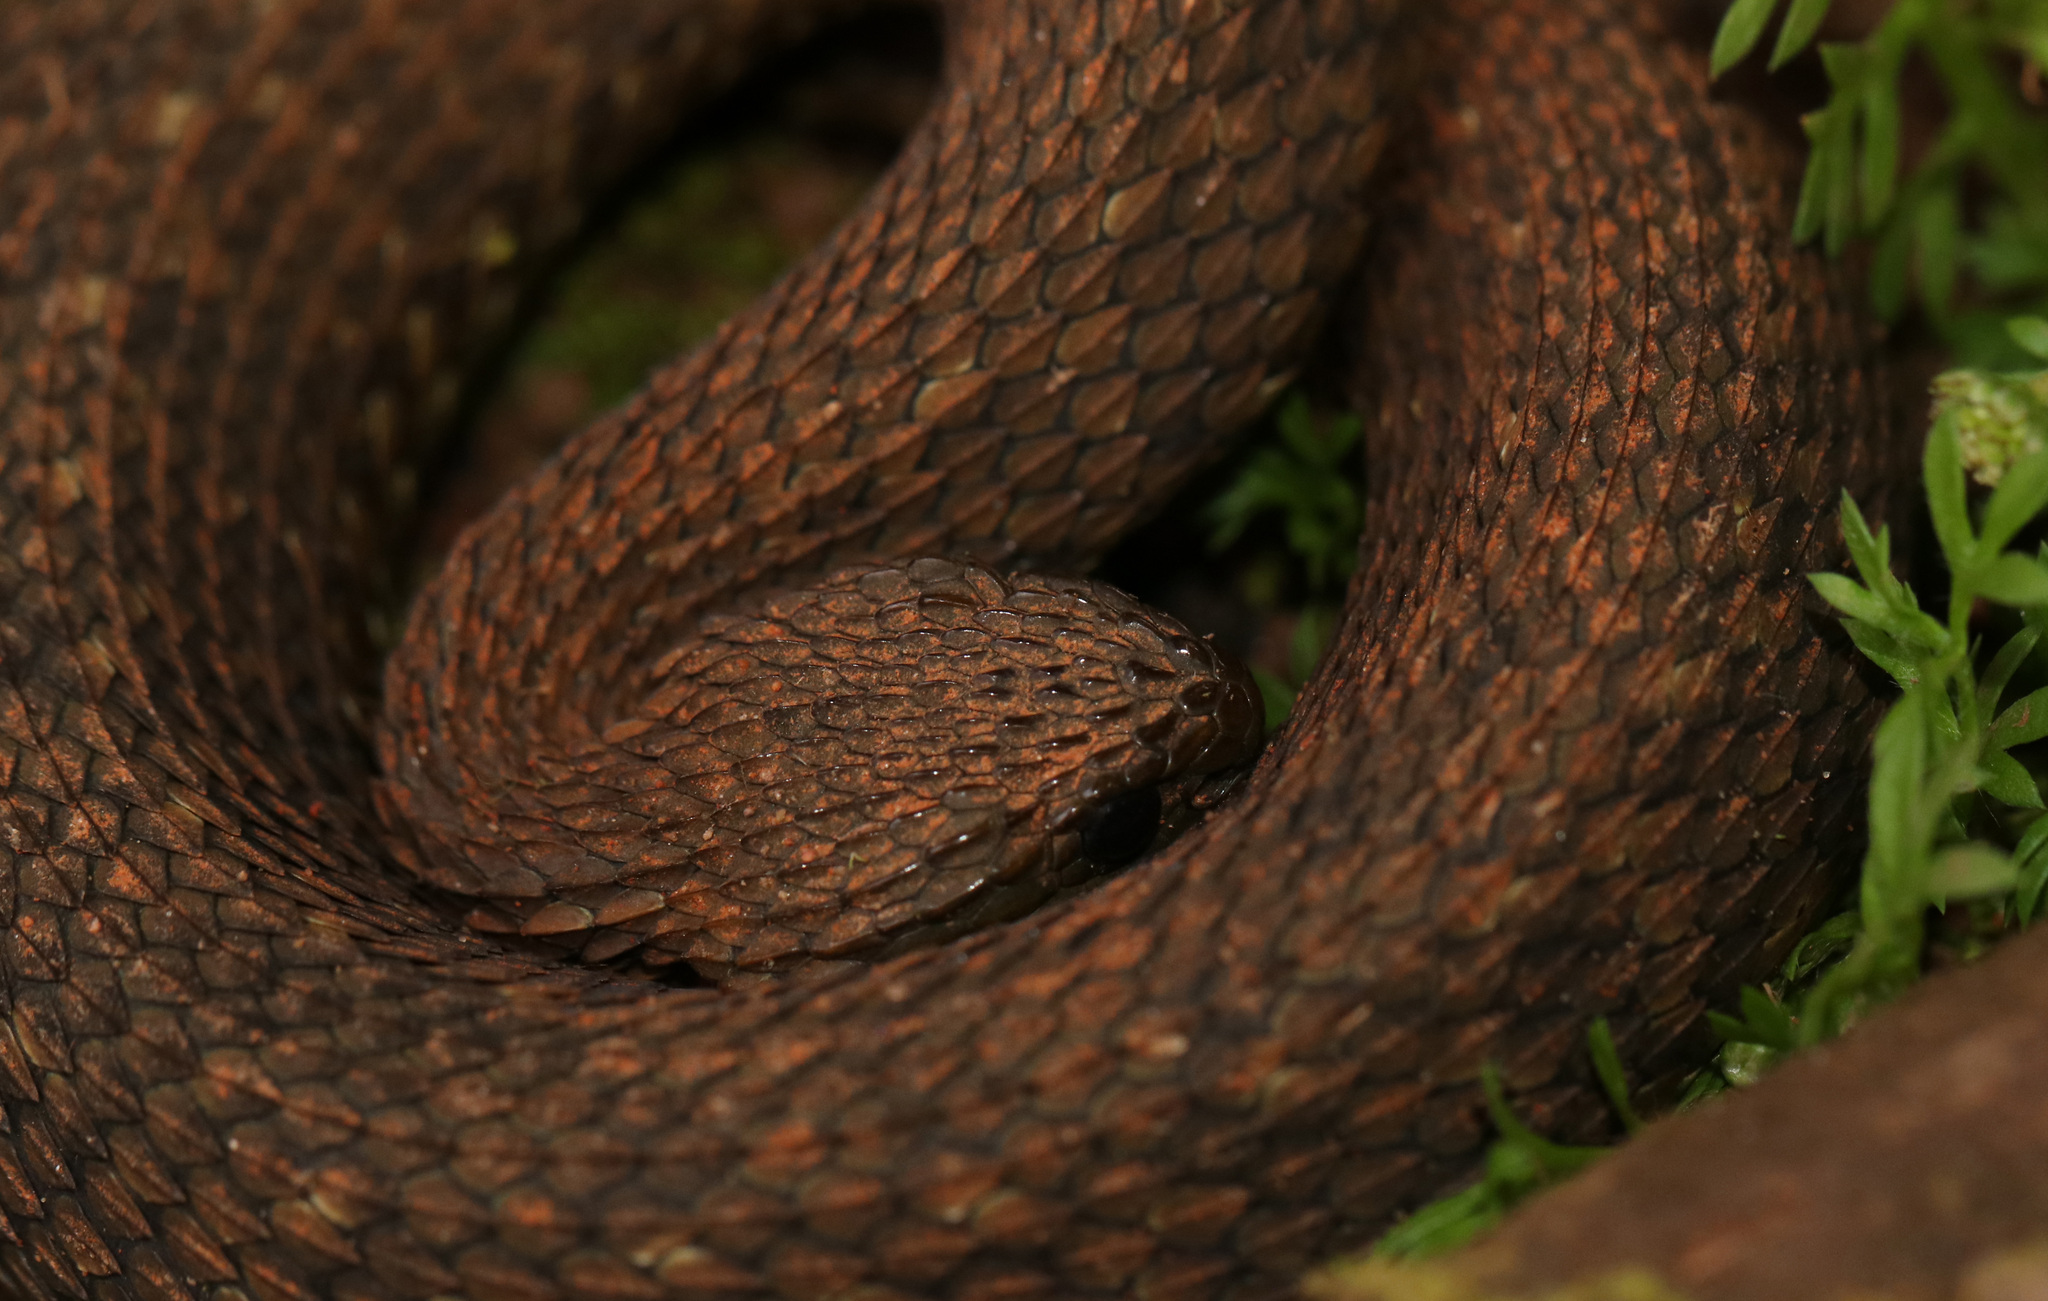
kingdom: Animalia
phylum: Chordata
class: Squamata
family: Viperidae
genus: Atheris
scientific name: Atheris barbouri
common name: Uzungwe mountain bush viper
